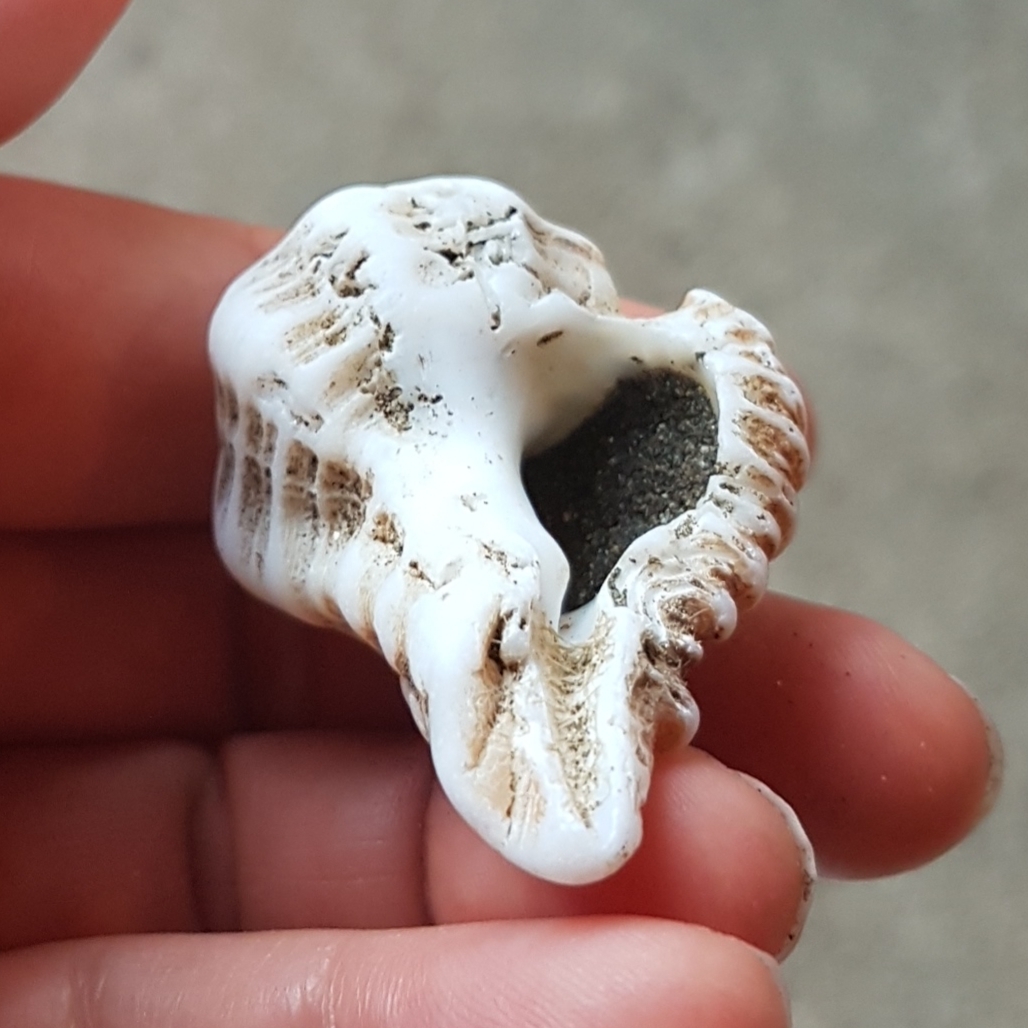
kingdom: Animalia
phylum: Mollusca
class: Gastropoda
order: Neogastropoda
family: Muricidae
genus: Homalocantha
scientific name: Homalocantha oxyacantha
